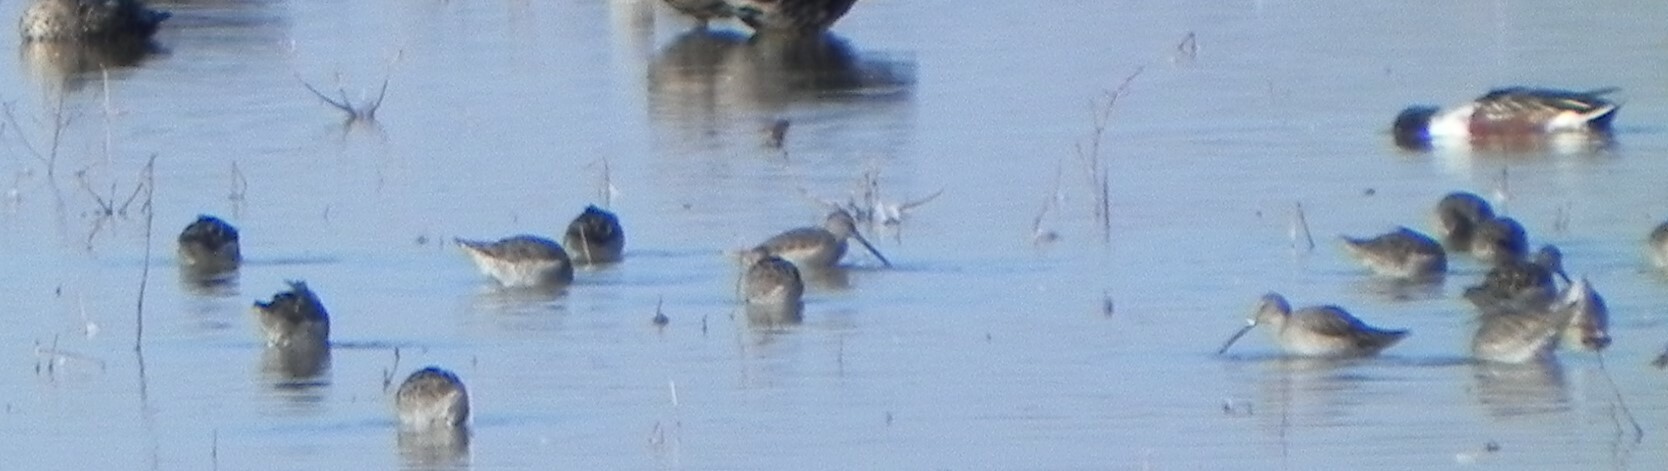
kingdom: Animalia
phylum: Chordata
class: Aves
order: Charadriiformes
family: Scolopacidae
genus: Limnodromus
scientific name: Limnodromus scolopaceus
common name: Long-billed dowitcher
